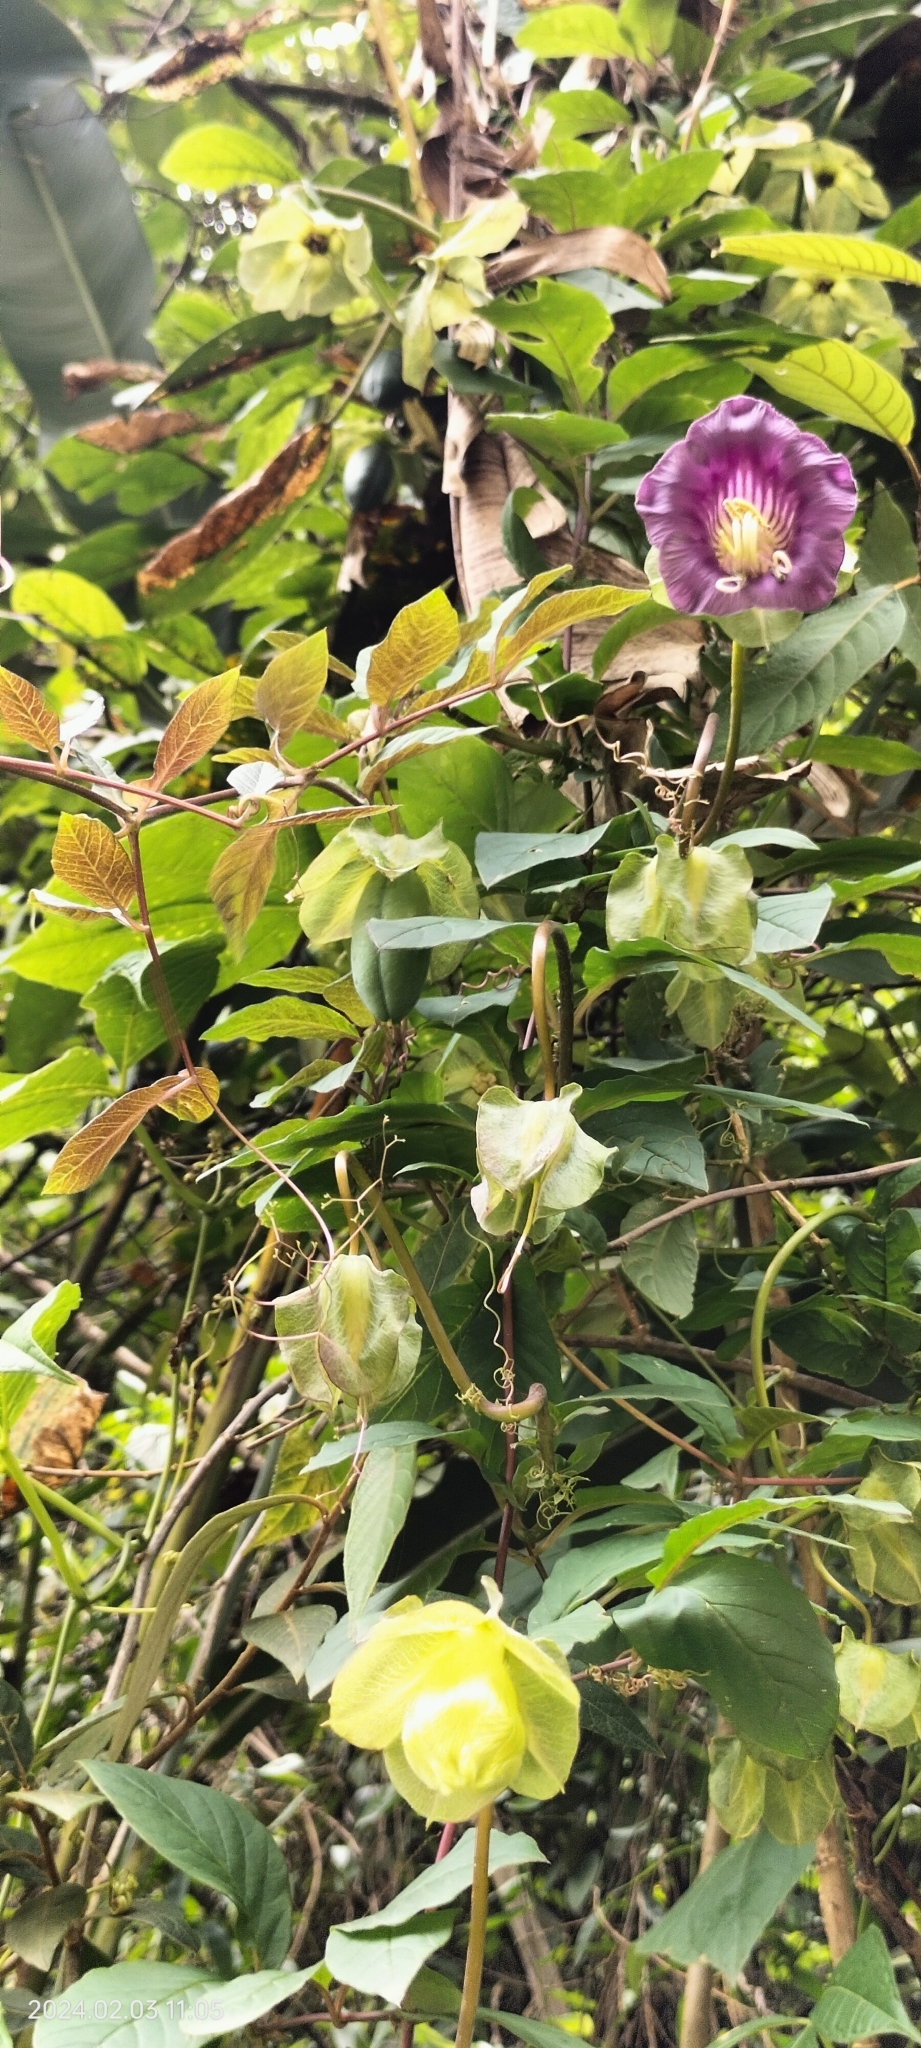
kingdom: Plantae
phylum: Tracheophyta
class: Magnoliopsida
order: Ericales
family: Polemoniaceae
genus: Cobaea
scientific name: Cobaea scandens
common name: Cup-and-saucer-vine
